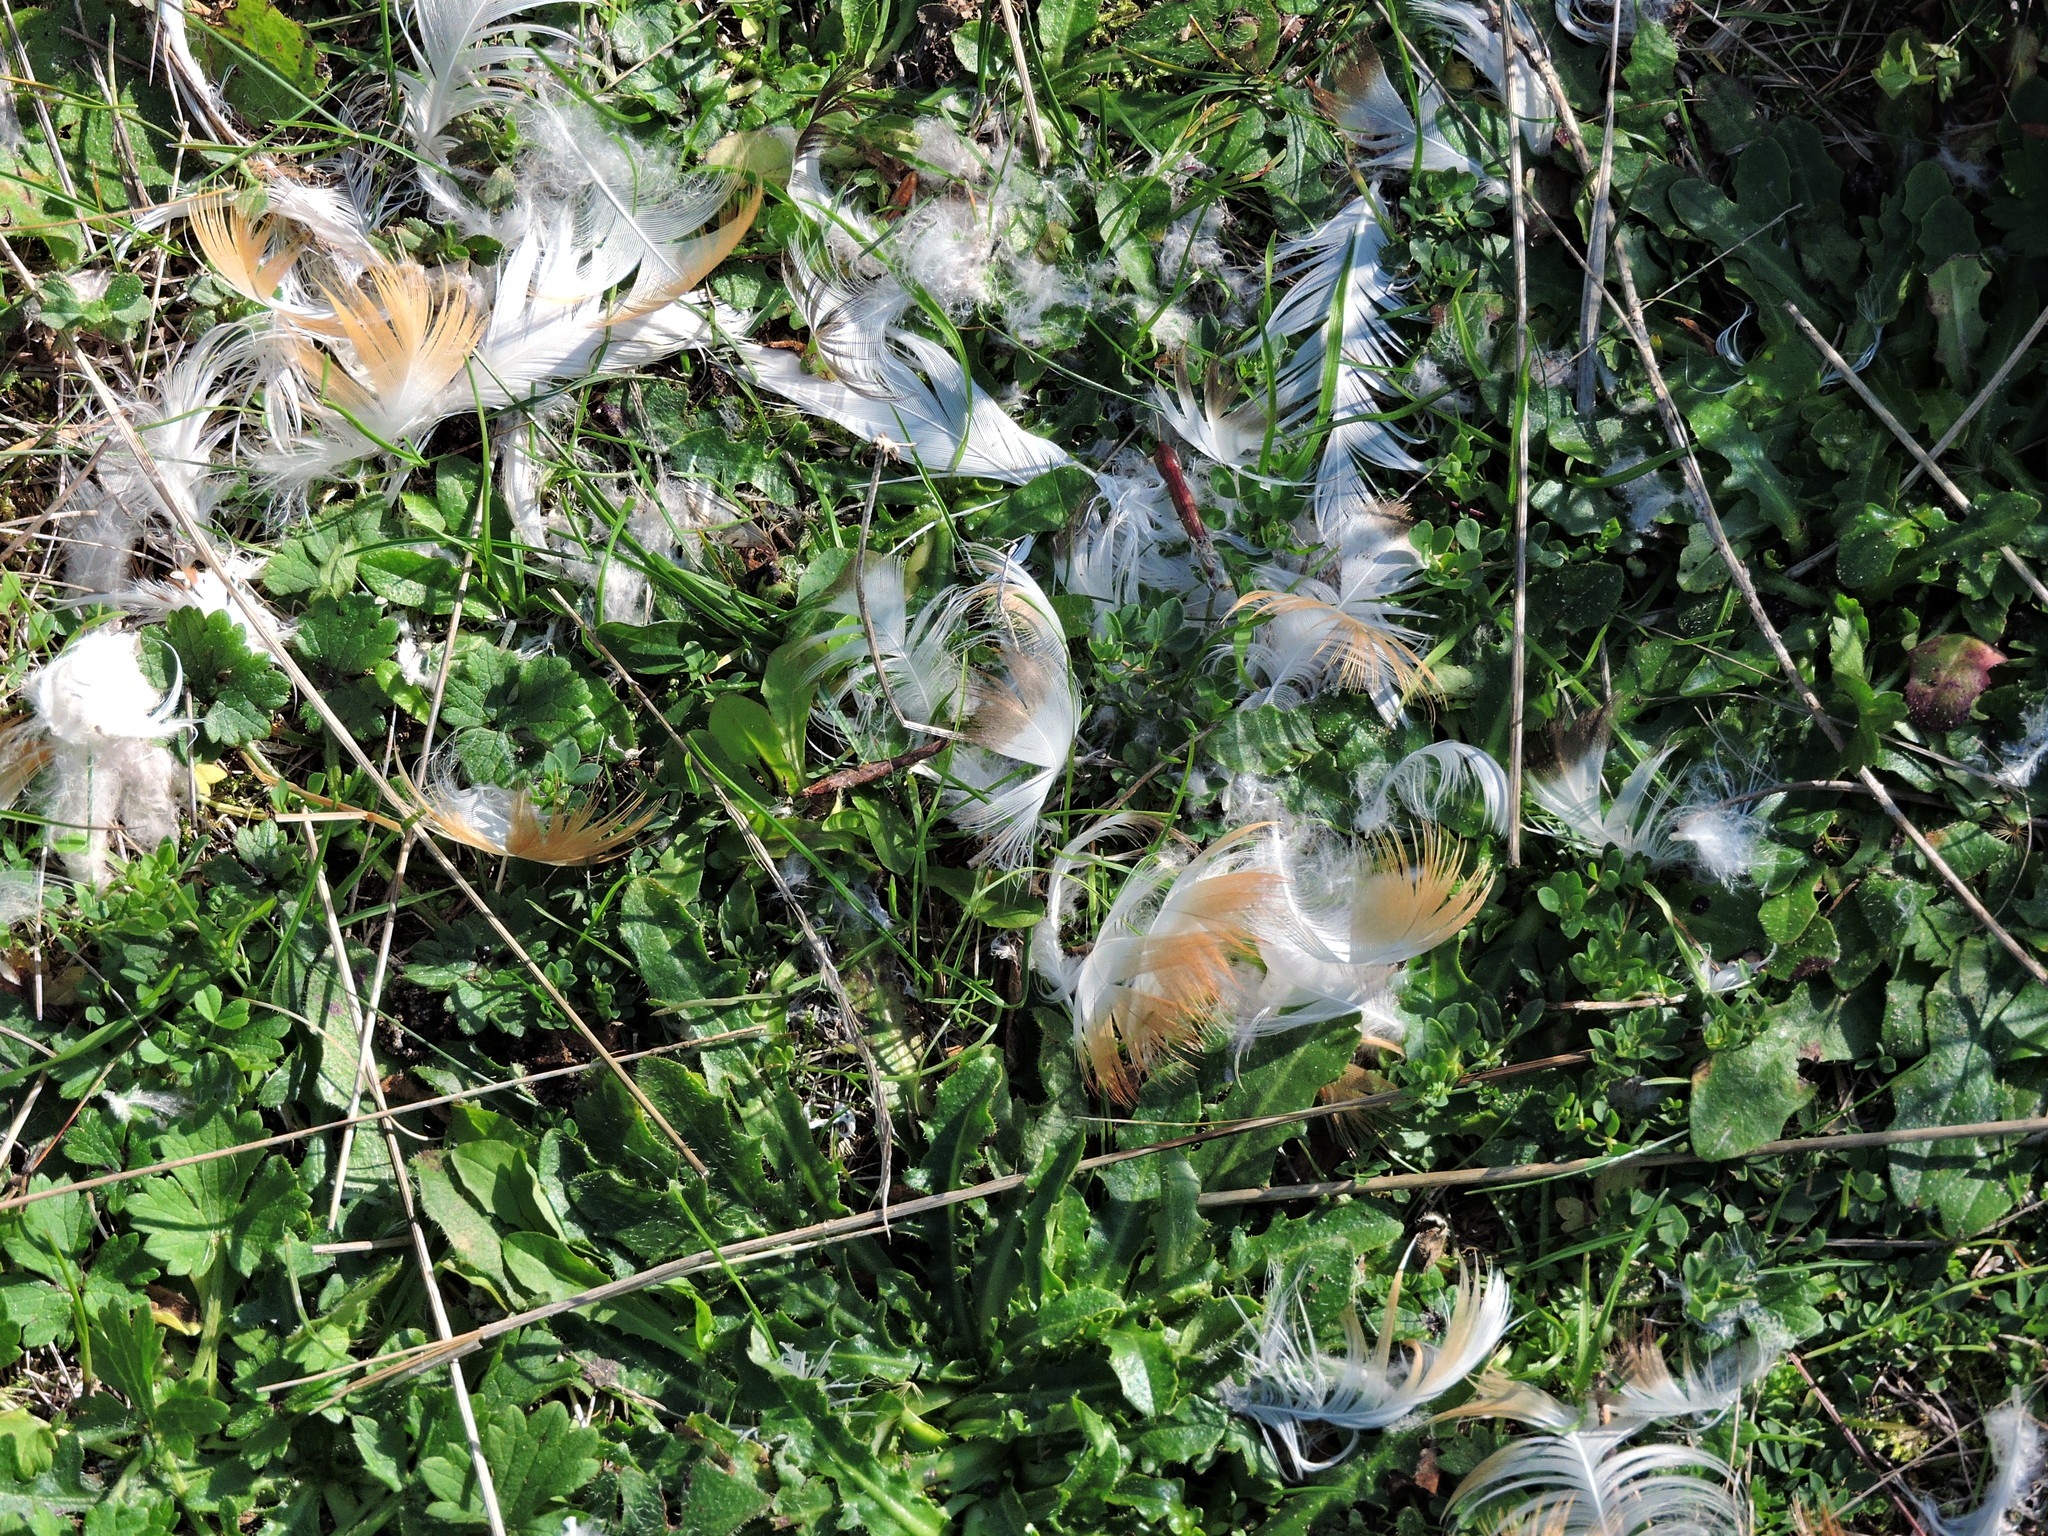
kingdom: Animalia
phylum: Chordata
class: Aves
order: Pelecaniformes
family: Ardeidae
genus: Bubulcus
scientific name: Bubulcus ibis
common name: Cattle egret
